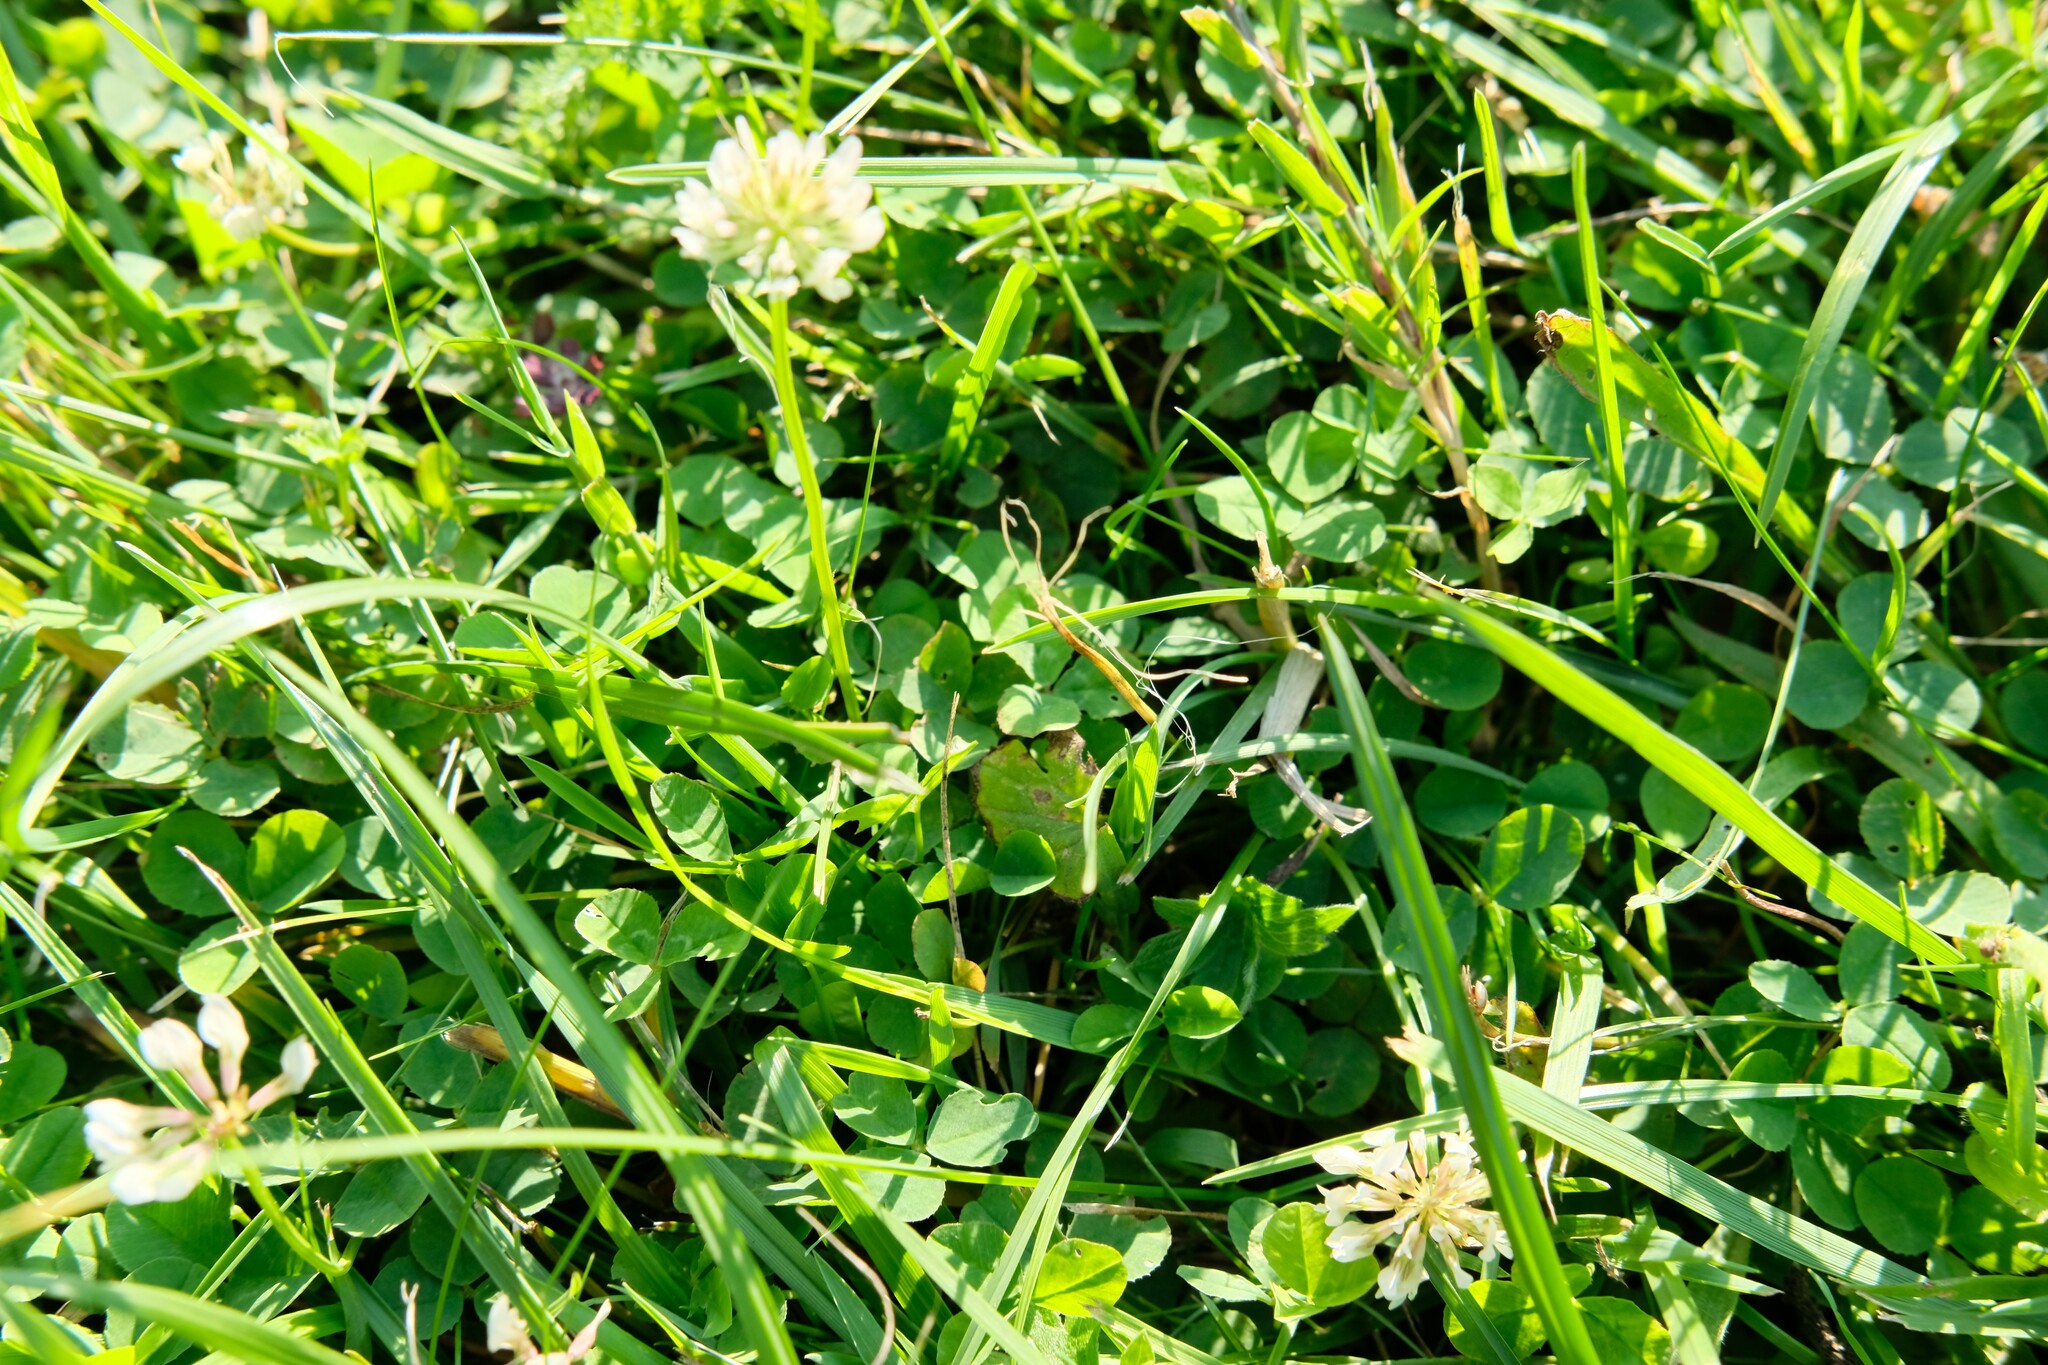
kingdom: Plantae
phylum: Tracheophyta
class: Magnoliopsida
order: Fabales
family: Fabaceae
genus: Trifolium
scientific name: Trifolium repens
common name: White clover
